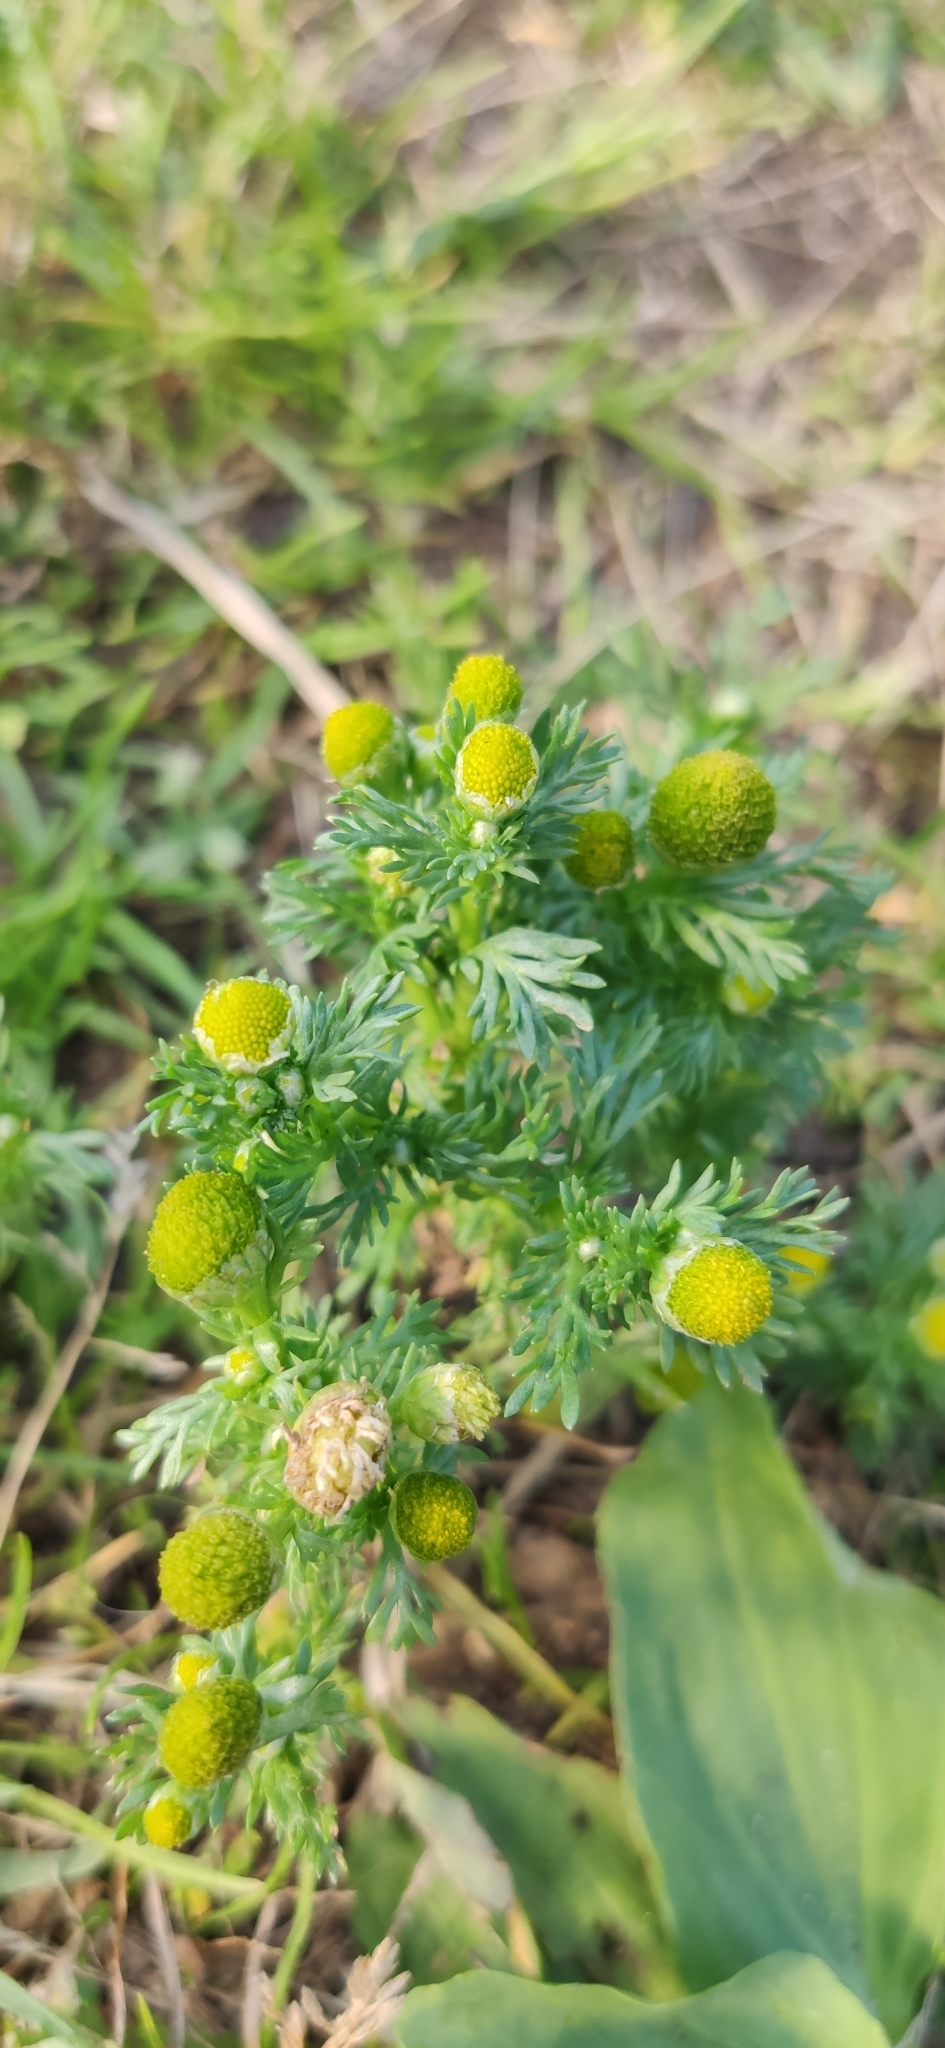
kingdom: Plantae
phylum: Tracheophyta
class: Magnoliopsida
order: Asterales
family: Asteraceae
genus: Matricaria
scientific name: Matricaria discoidea
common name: Disc mayweed
